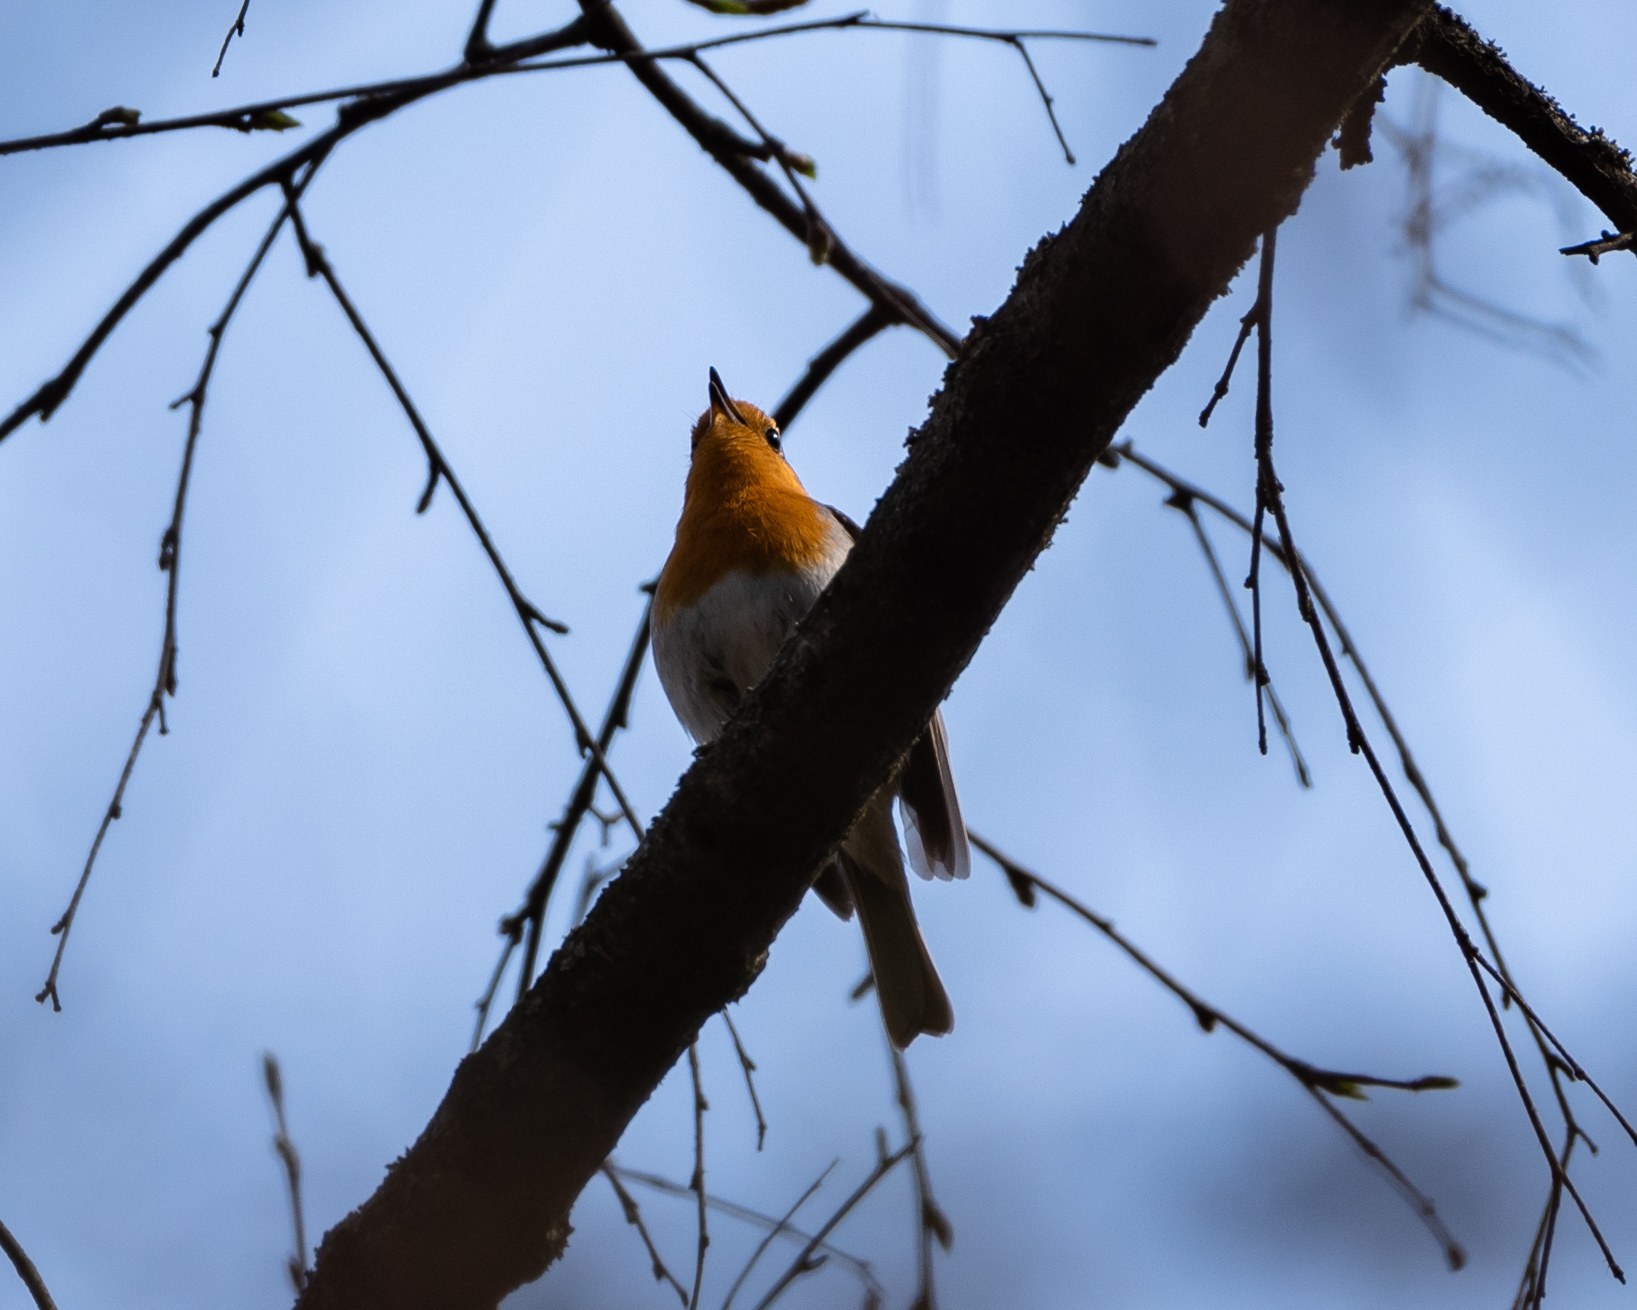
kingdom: Animalia
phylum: Chordata
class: Aves
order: Passeriformes
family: Muscicapidae
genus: Erithacus
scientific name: Erithacus rubecula
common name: European robin
